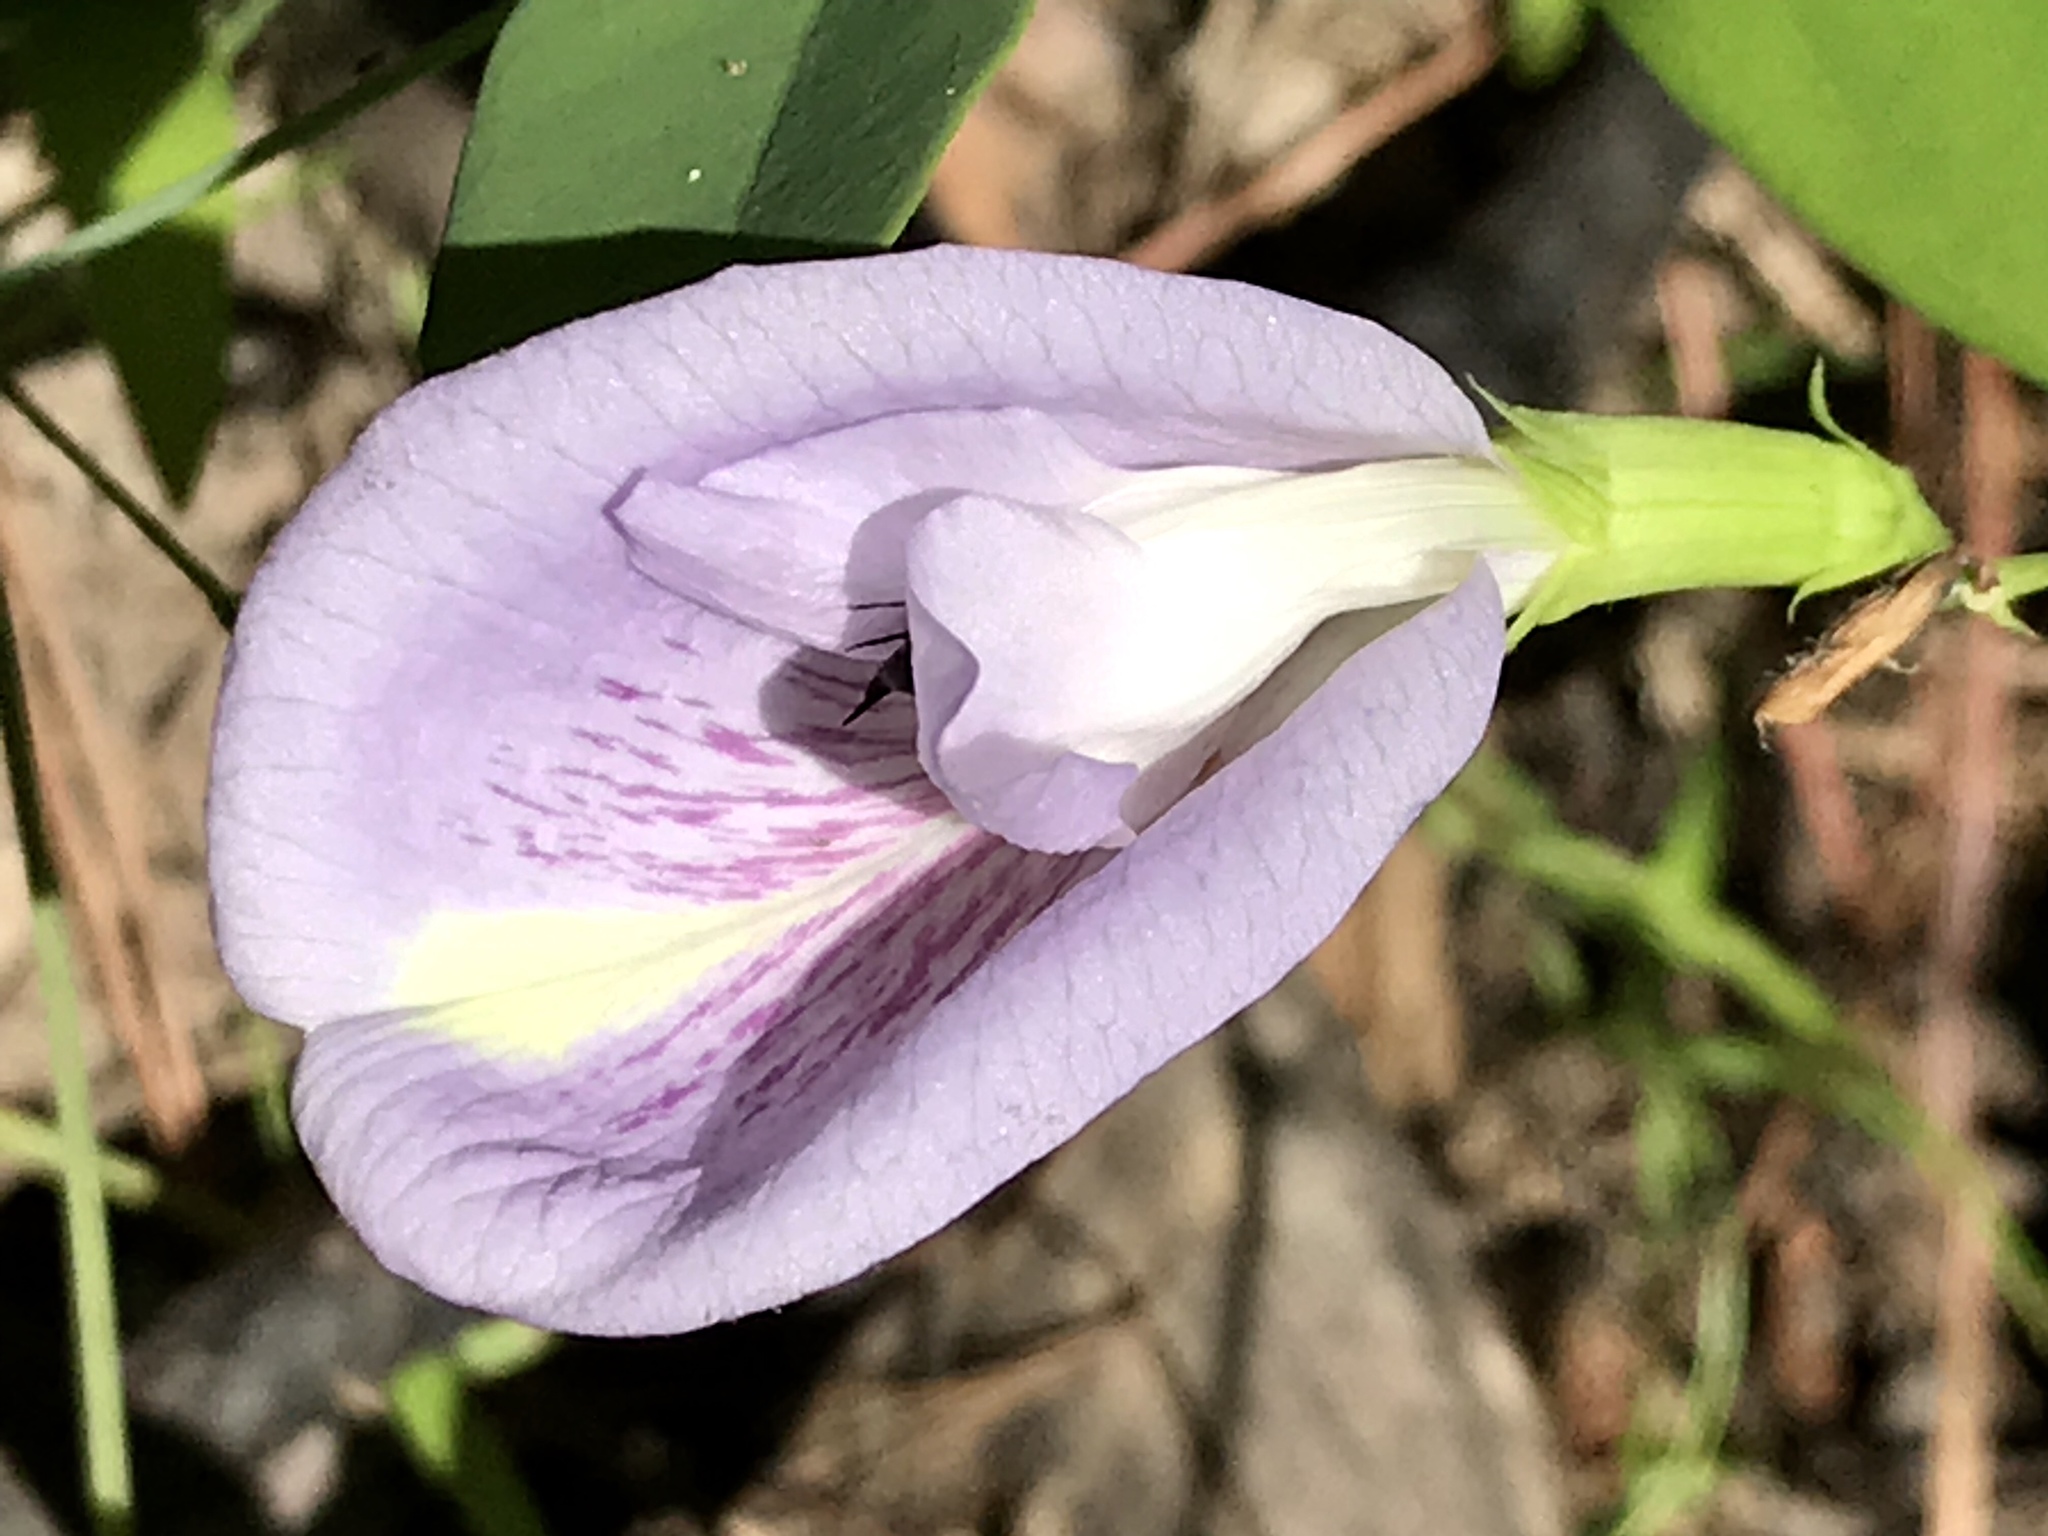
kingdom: Plantae
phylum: Tracheophyta
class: Magnoliopsida
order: Fabales
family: Fabaceae
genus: Clitoria
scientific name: Clitoria mariana
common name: Butterfly-pea
